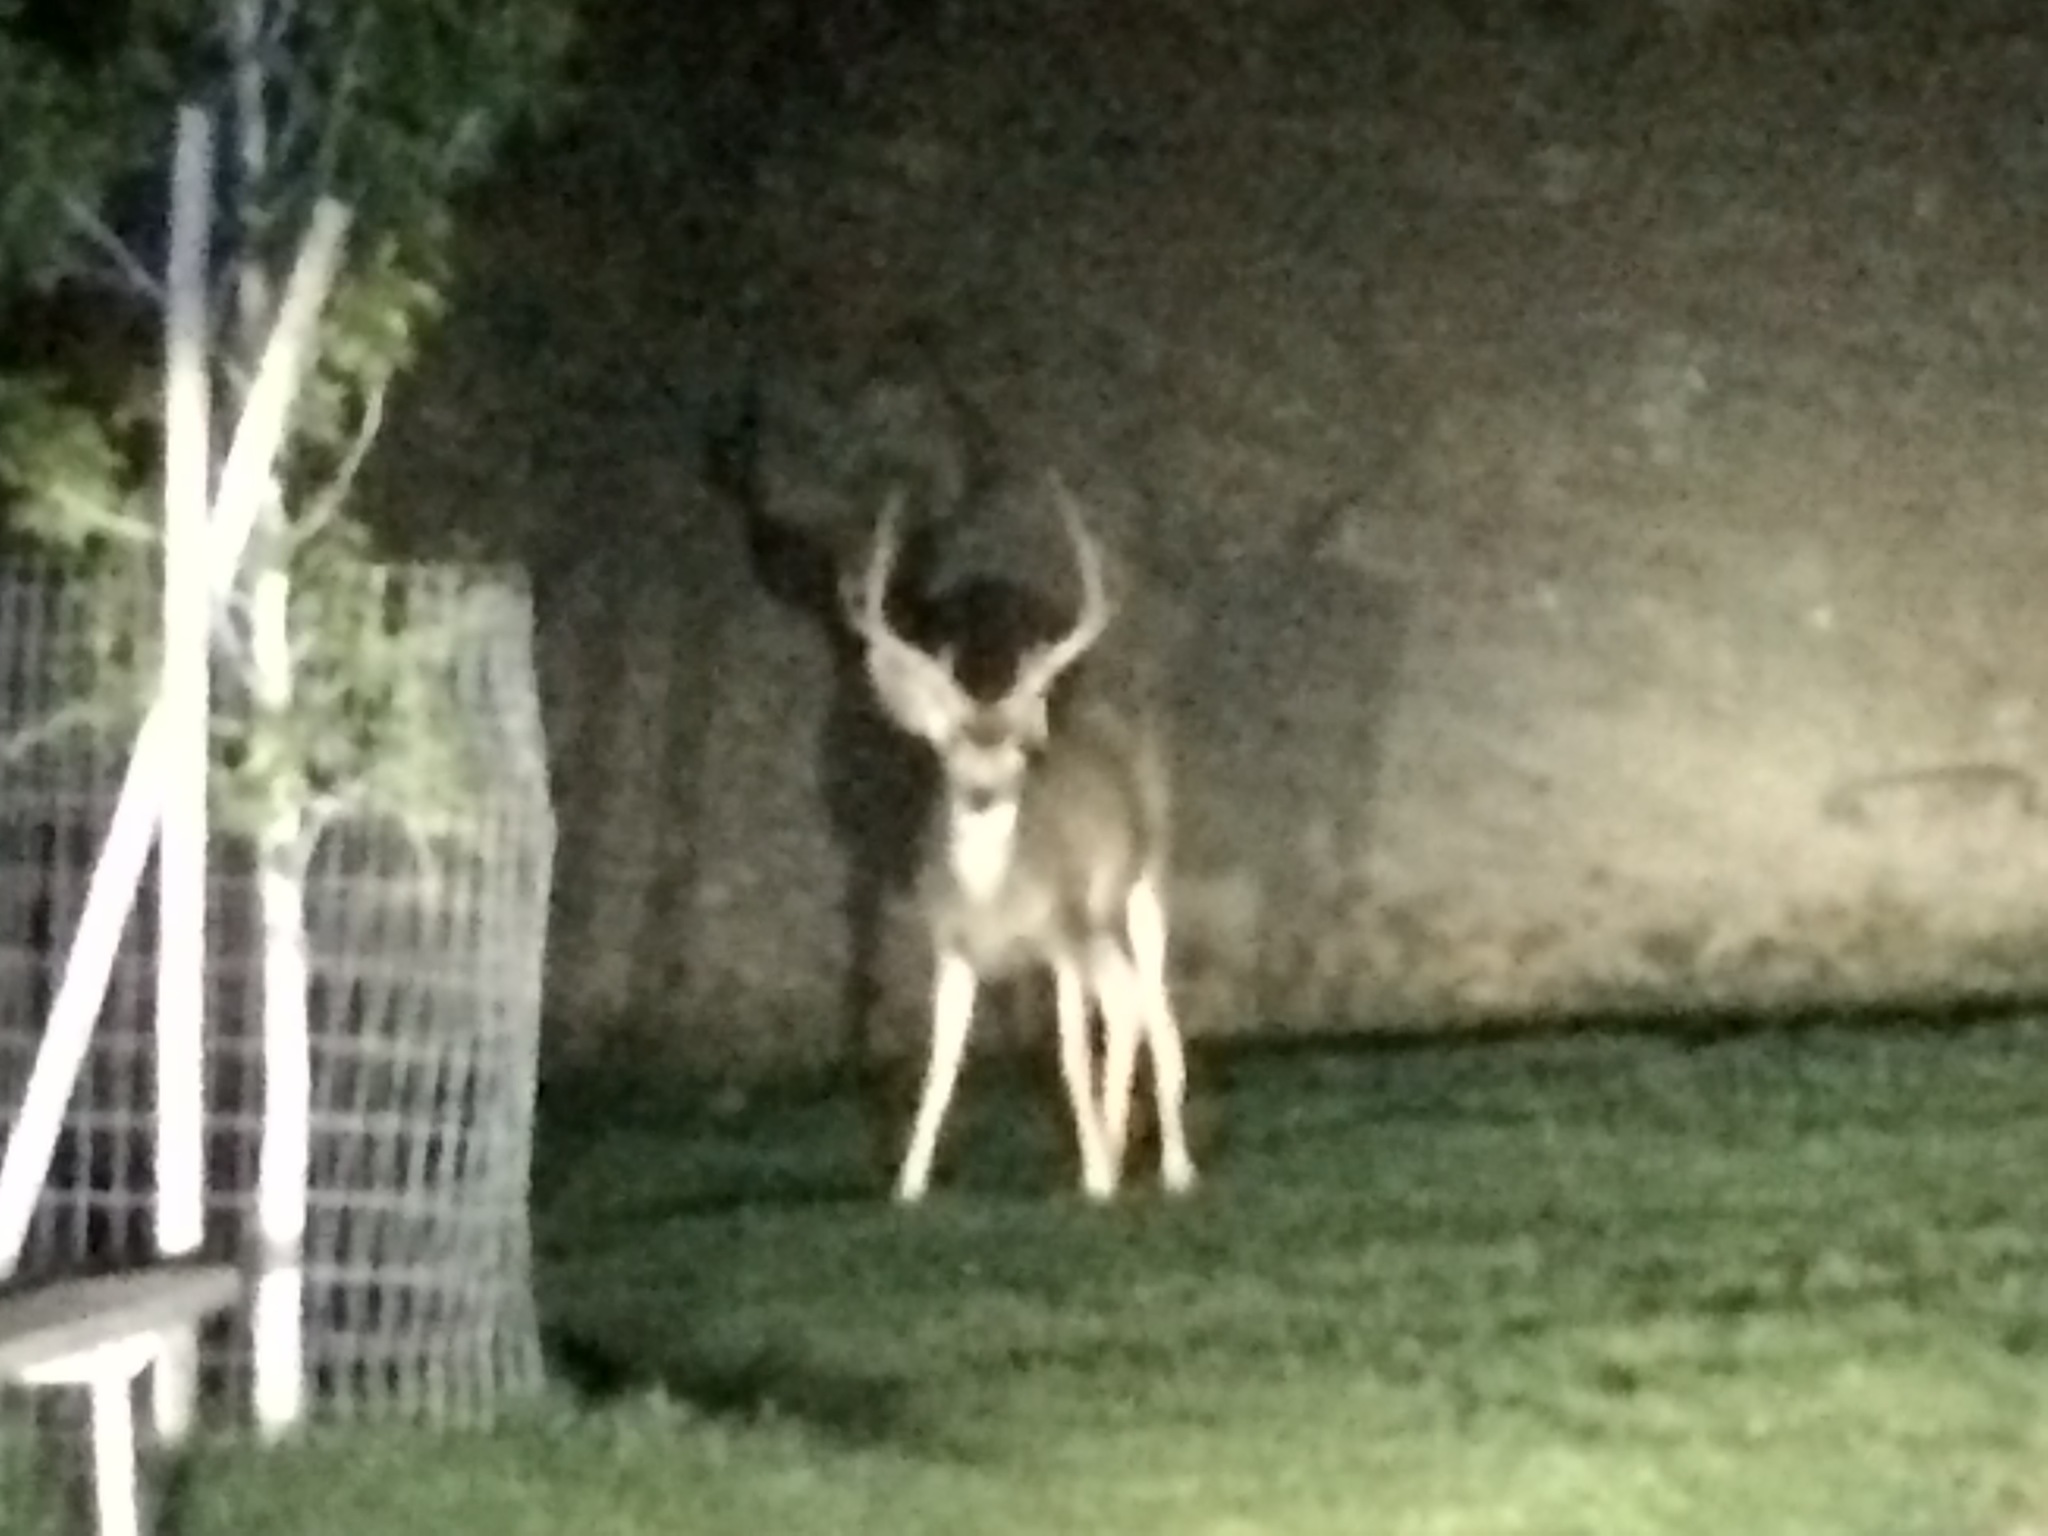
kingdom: Animalia
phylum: Chordata
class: Mammalia
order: Artiodactyla
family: Cervidae
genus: Odocoileus
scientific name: Odocoileus hemionus
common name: Mule deer
